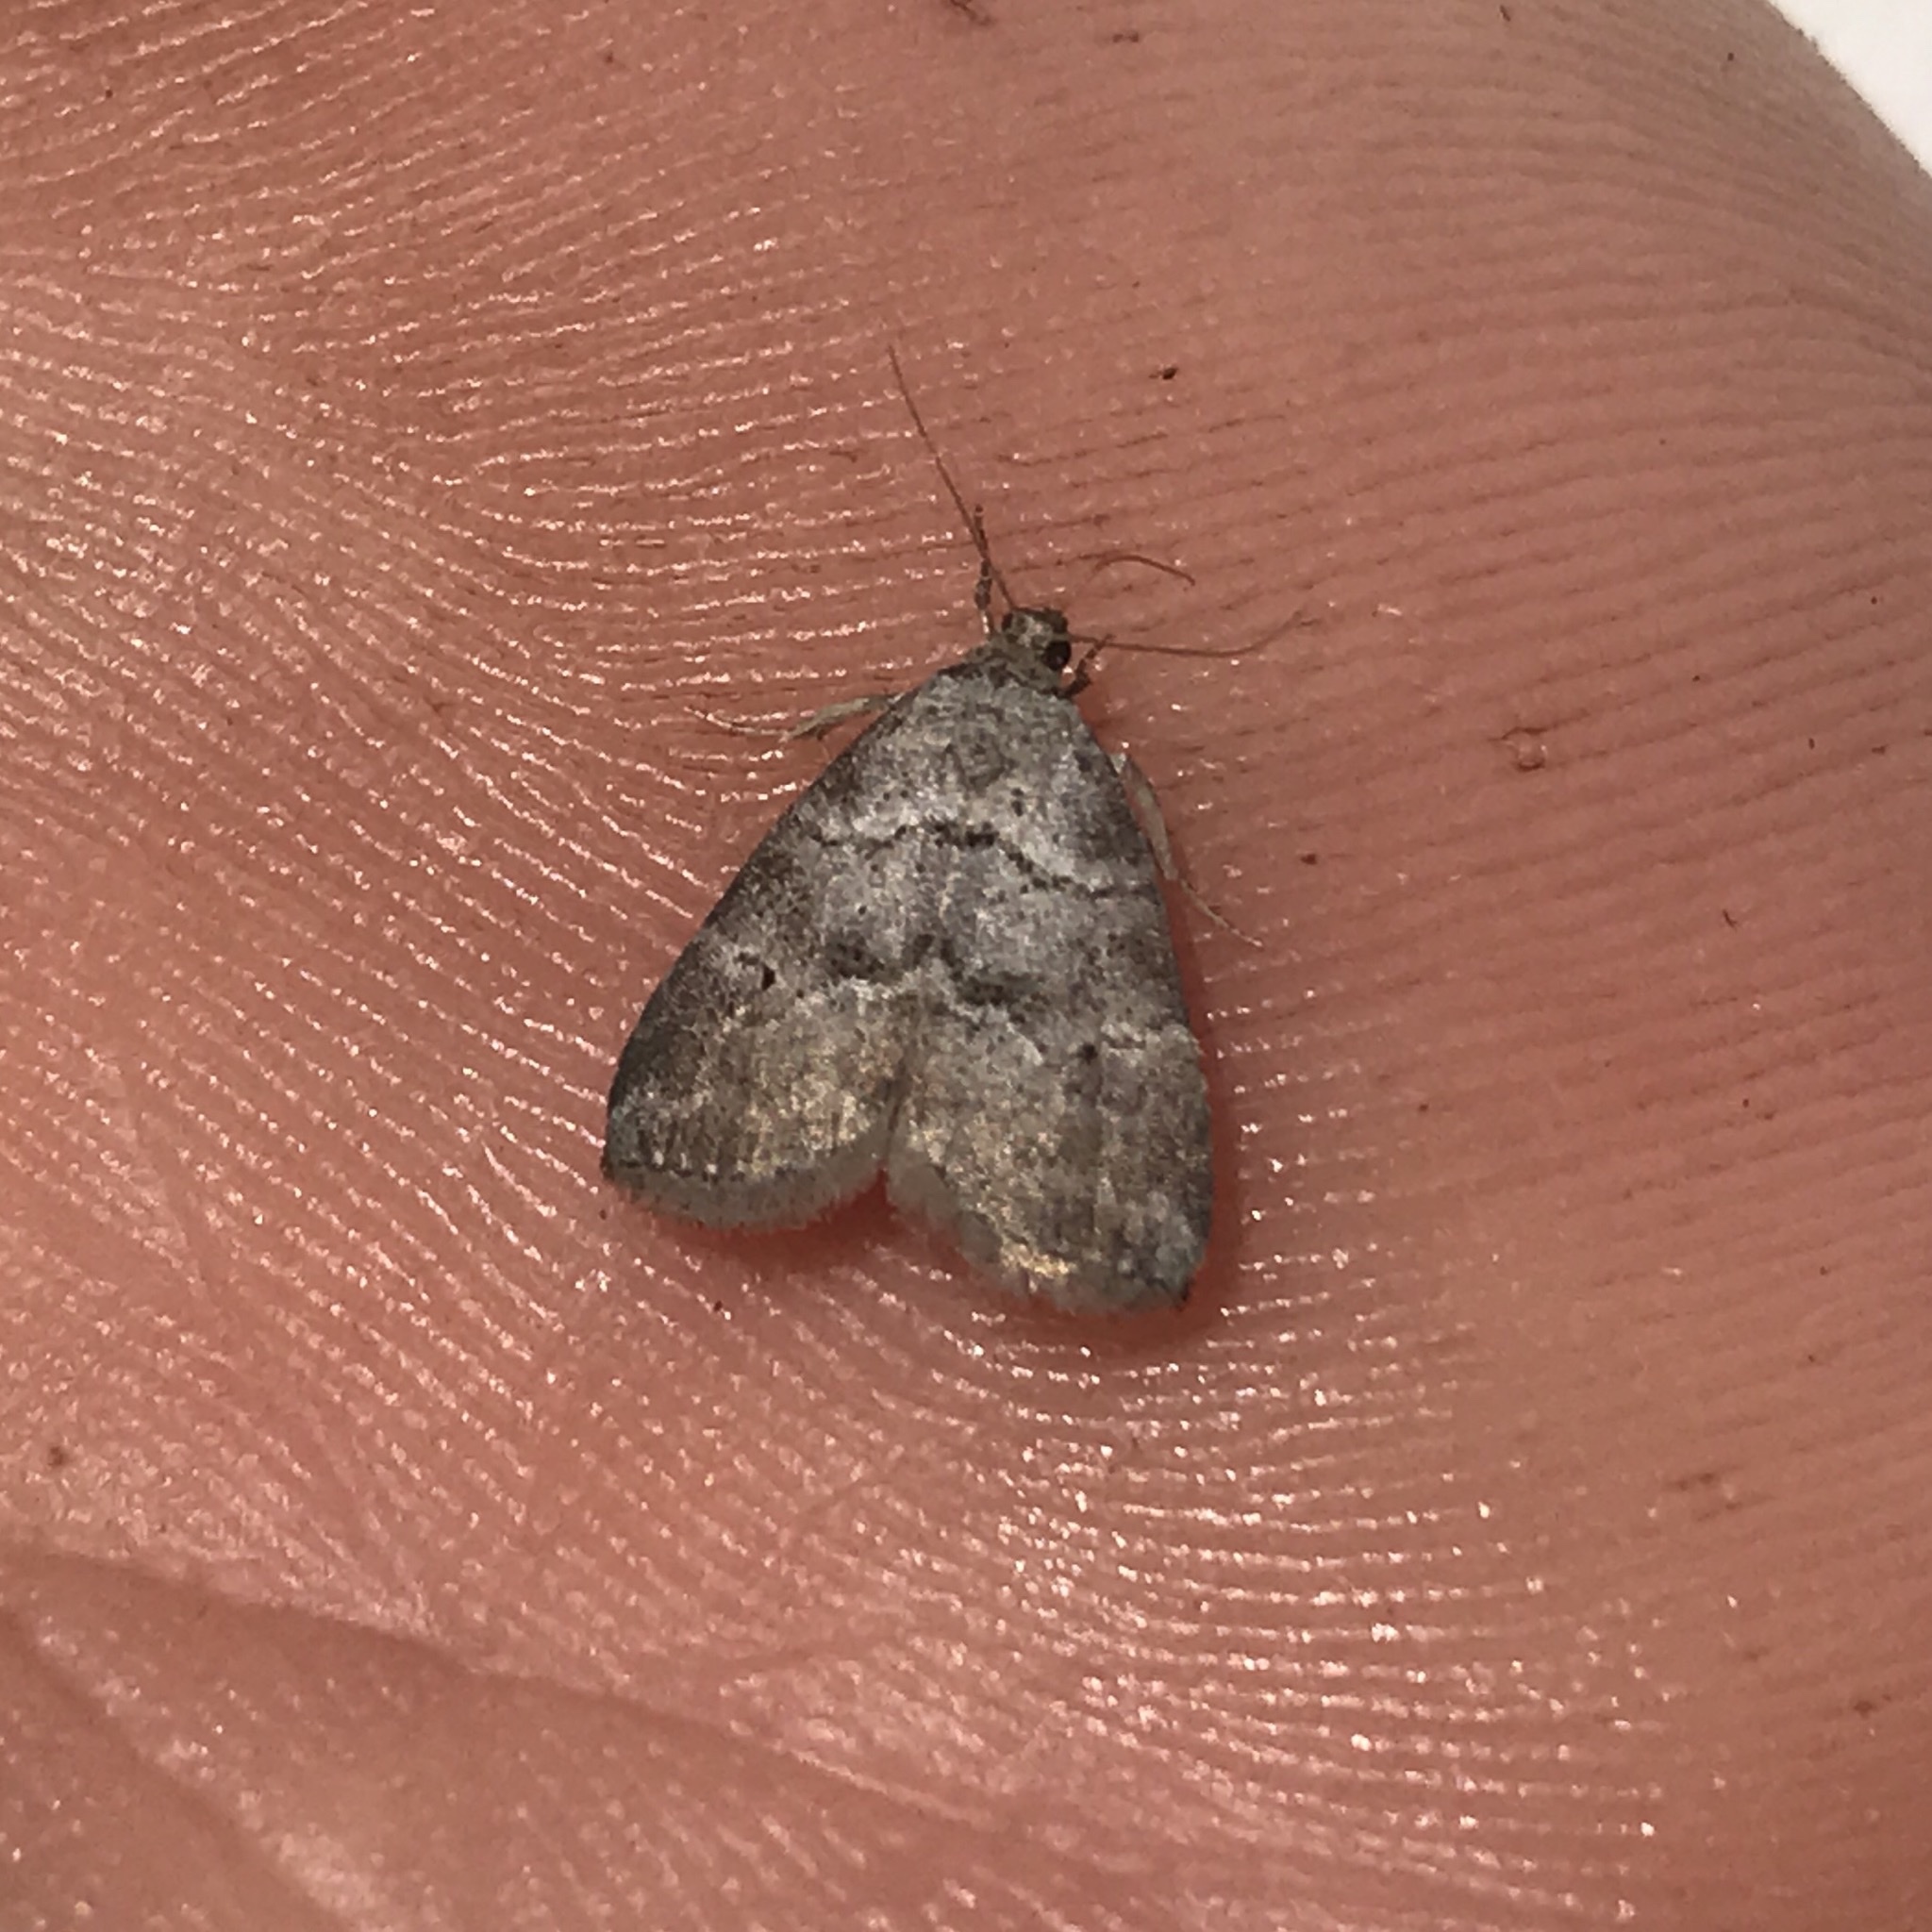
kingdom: Animalia
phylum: Arthropoda
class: Insecta
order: Lepidoptera
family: Erebidae
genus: Hyperstrotia
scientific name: Hyperstrotia pervertens
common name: Dotted graylet
